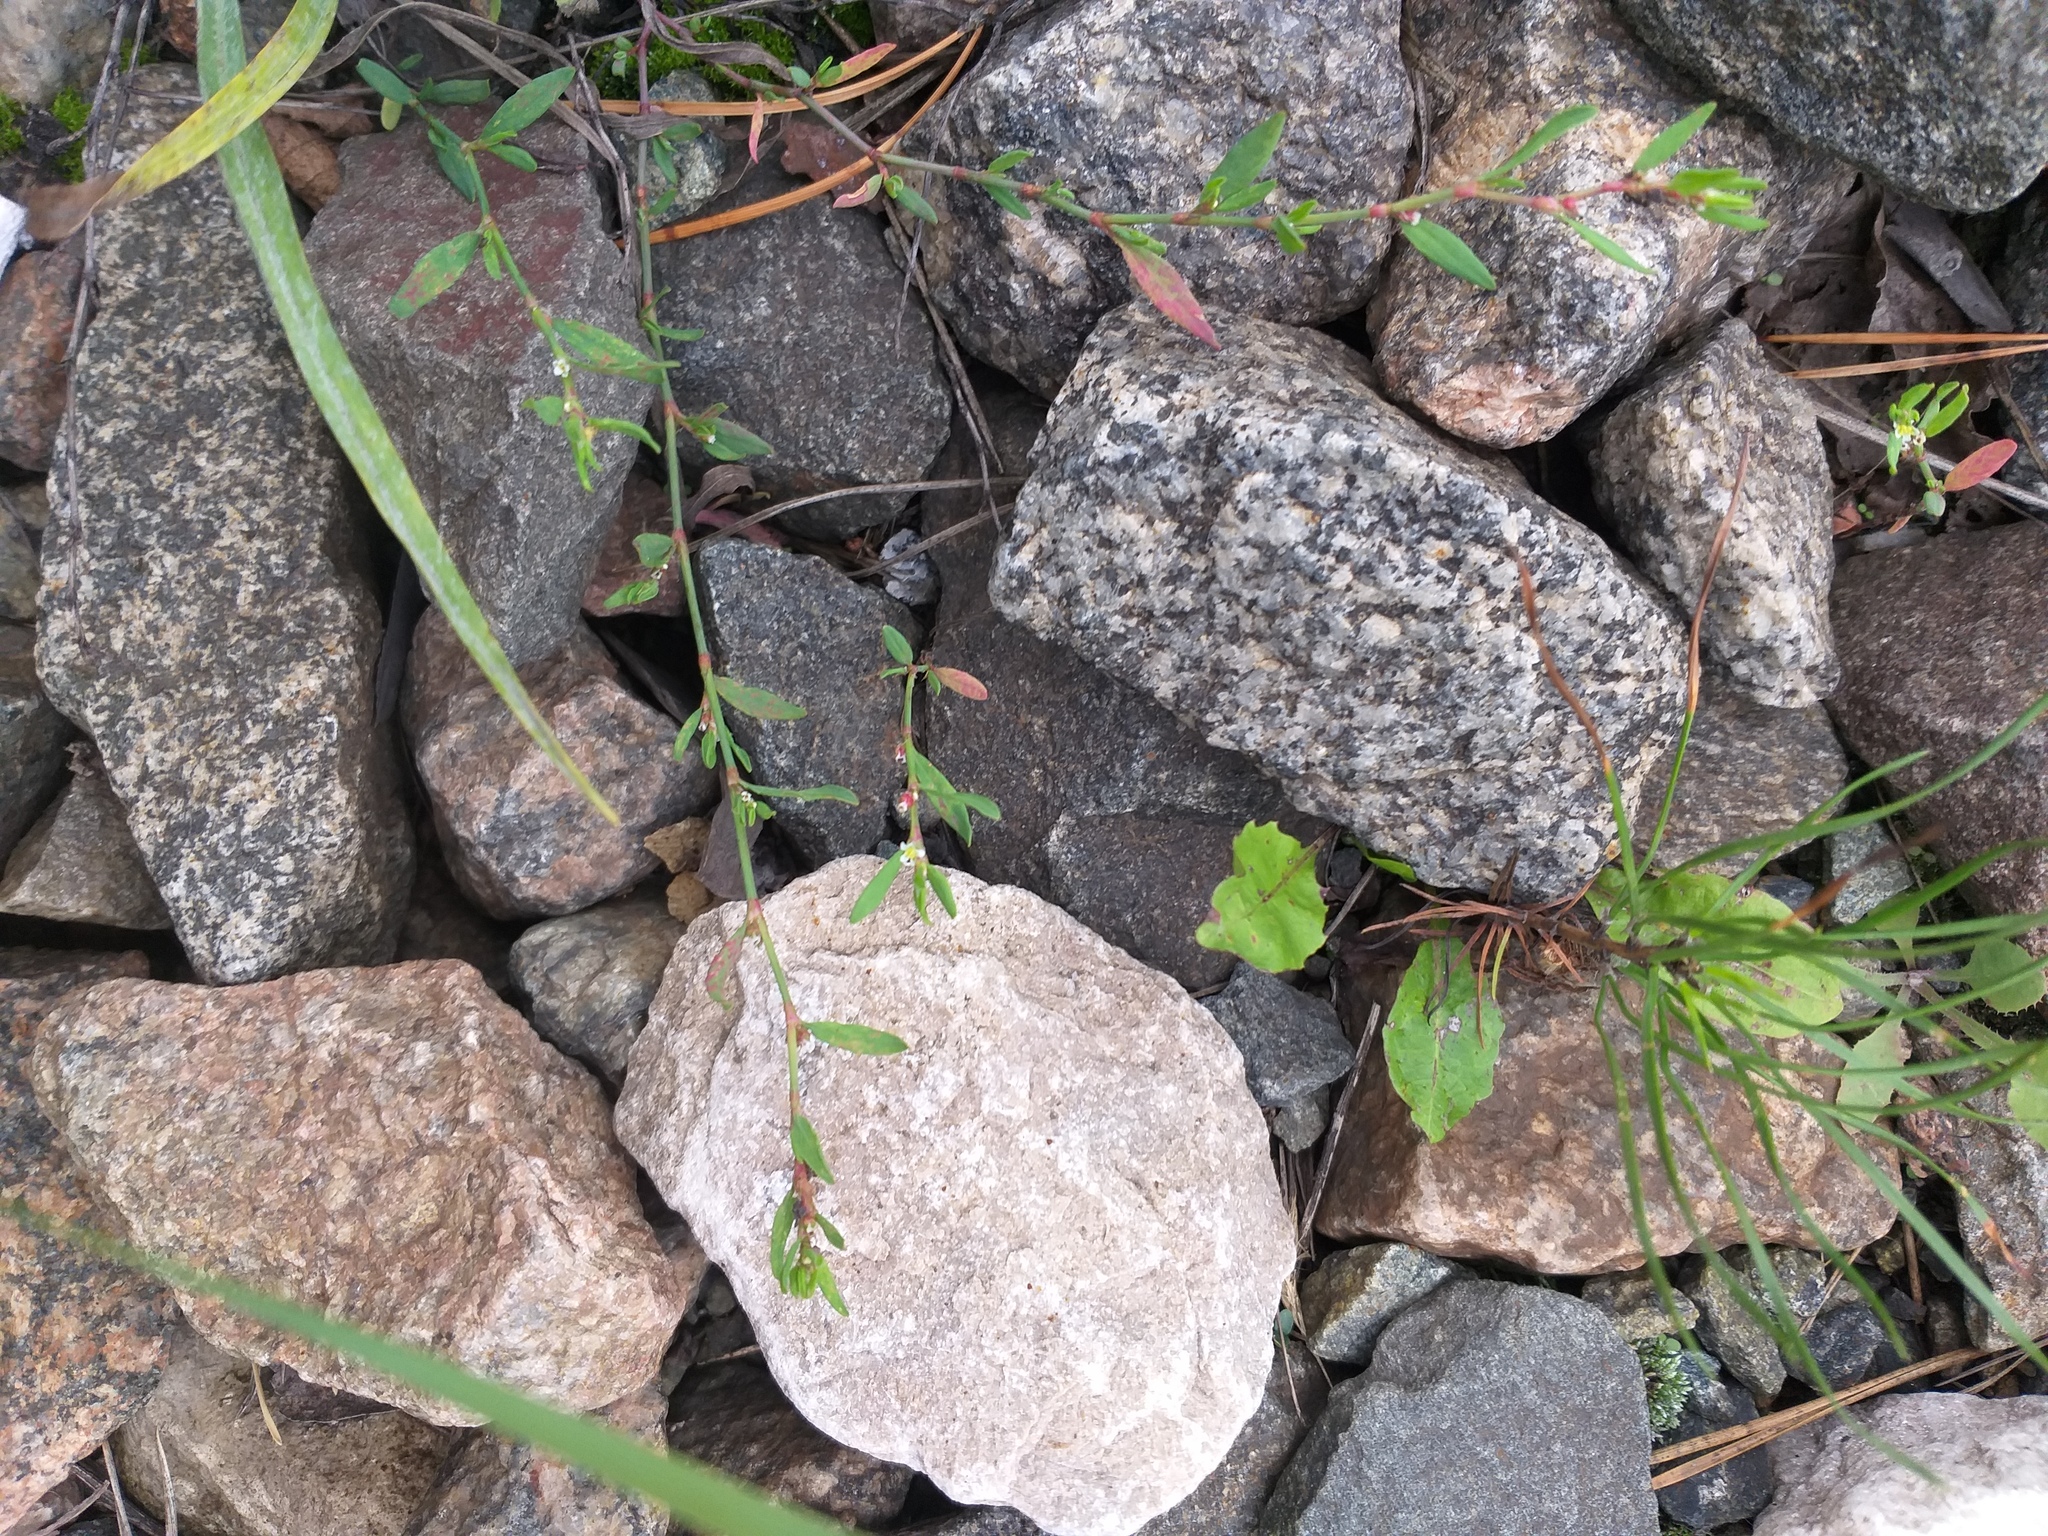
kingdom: Plantae
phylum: Tracheophyta
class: Magnoliopsida
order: Caryophyllales
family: Polygonaceae
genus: Polygonum
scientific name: Polygonum
